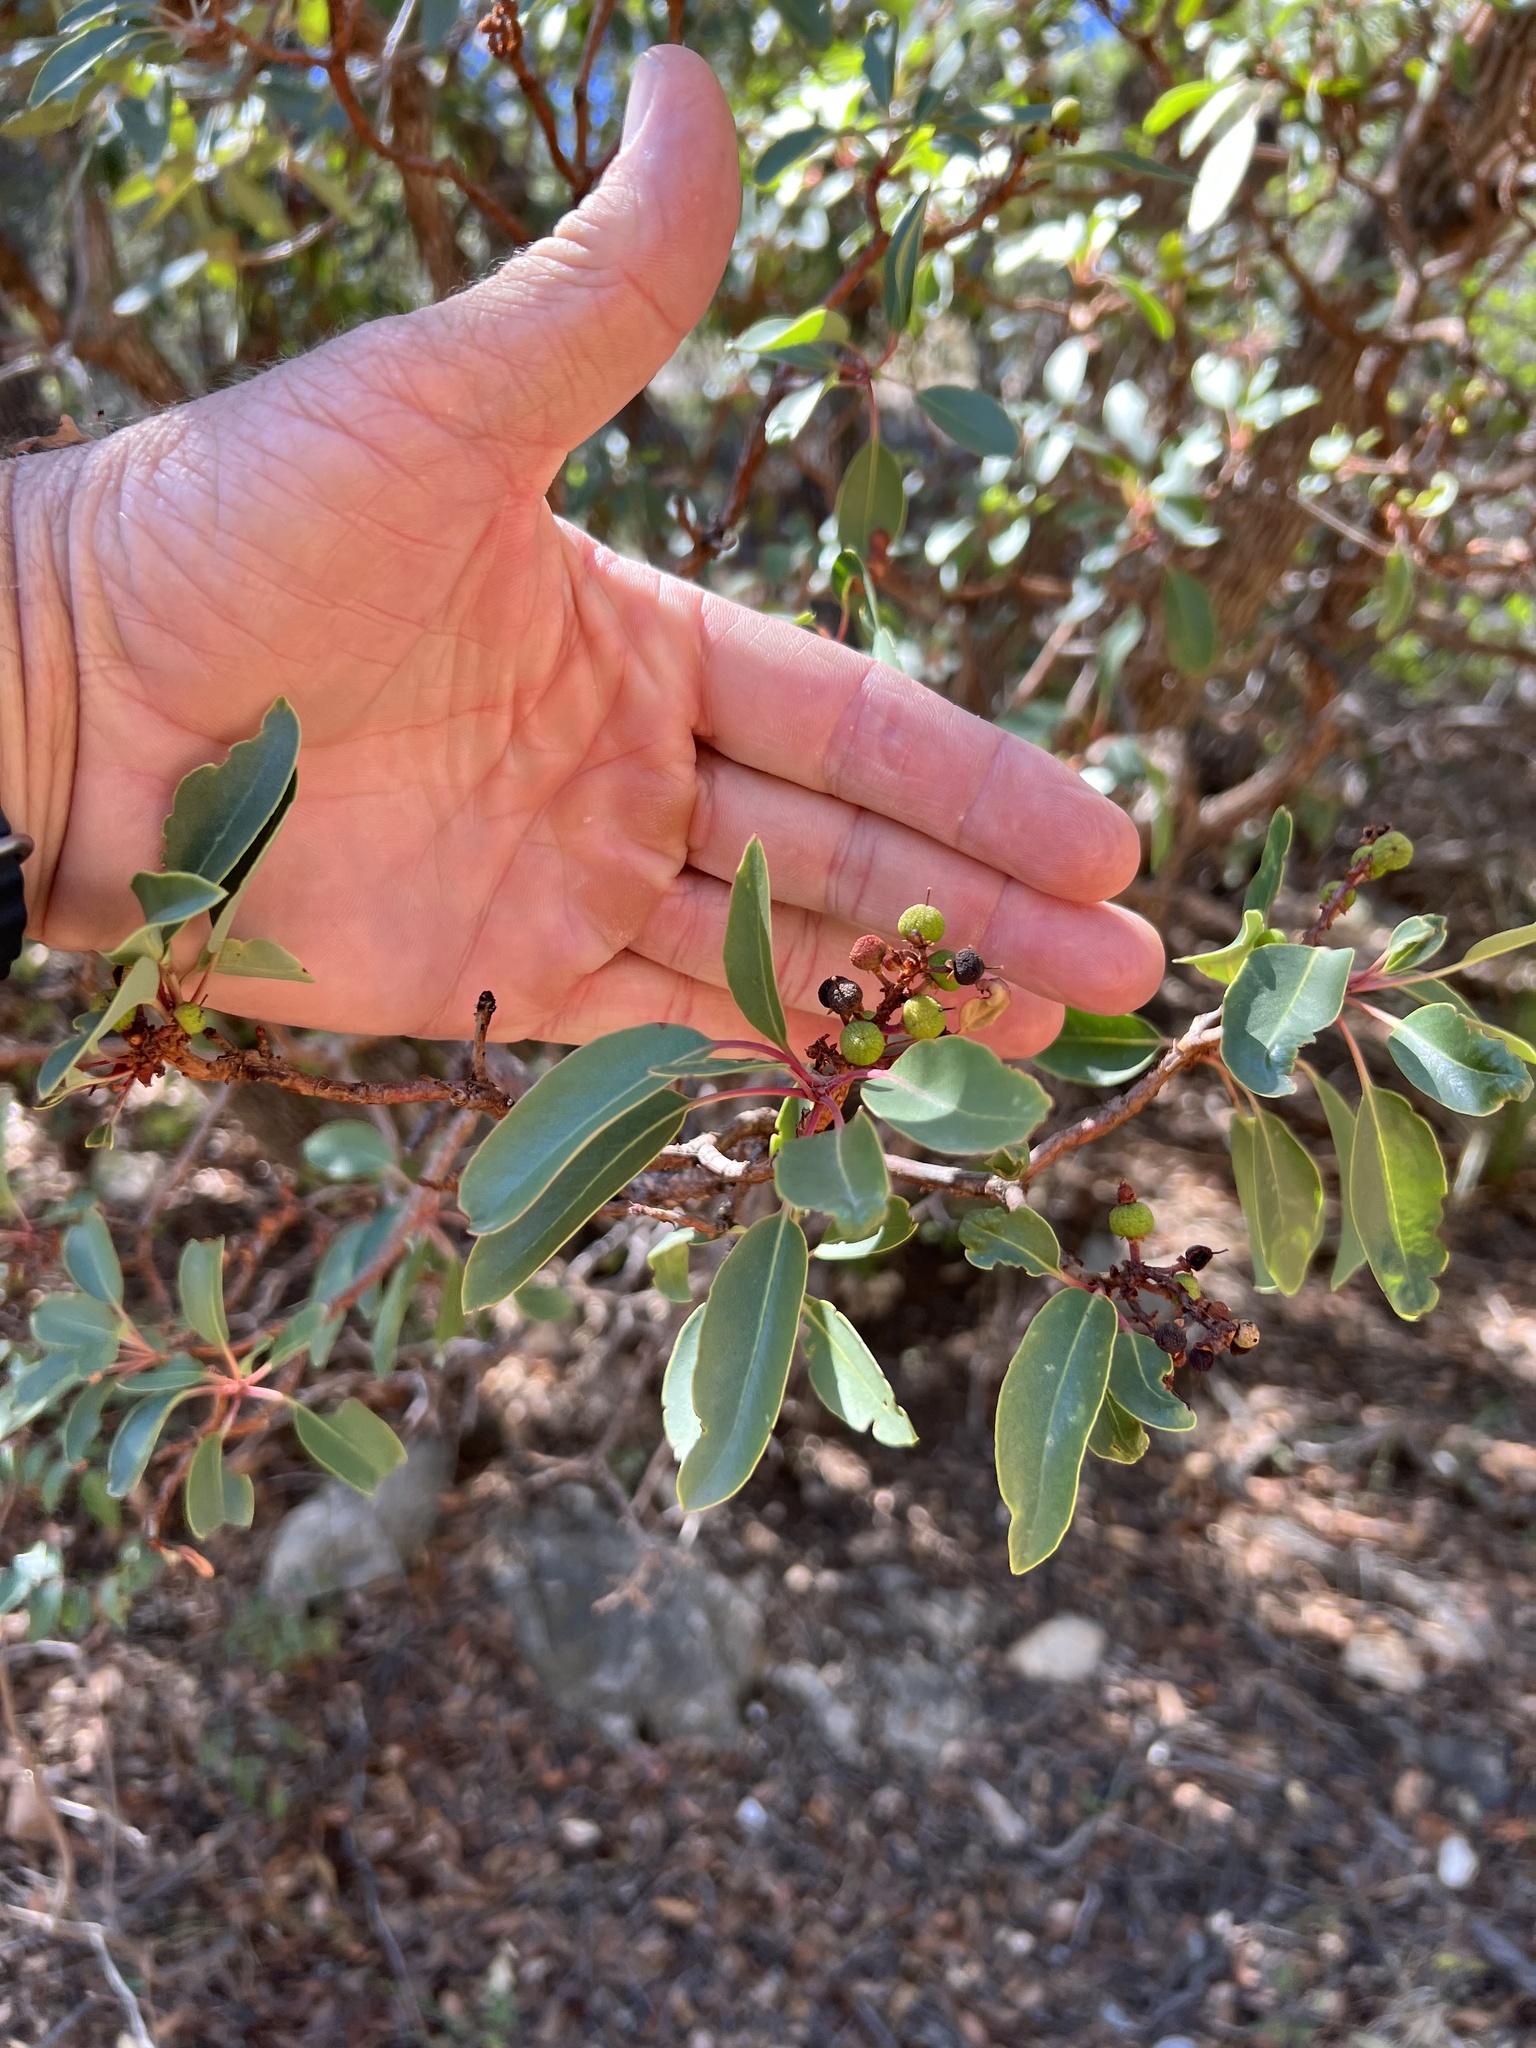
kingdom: Plantae
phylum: Tracheophyta
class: Magnoliopsida
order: Ericales
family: Ericaceae
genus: Arbutus
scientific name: Arbutus arizonica
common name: Arizona madrone
